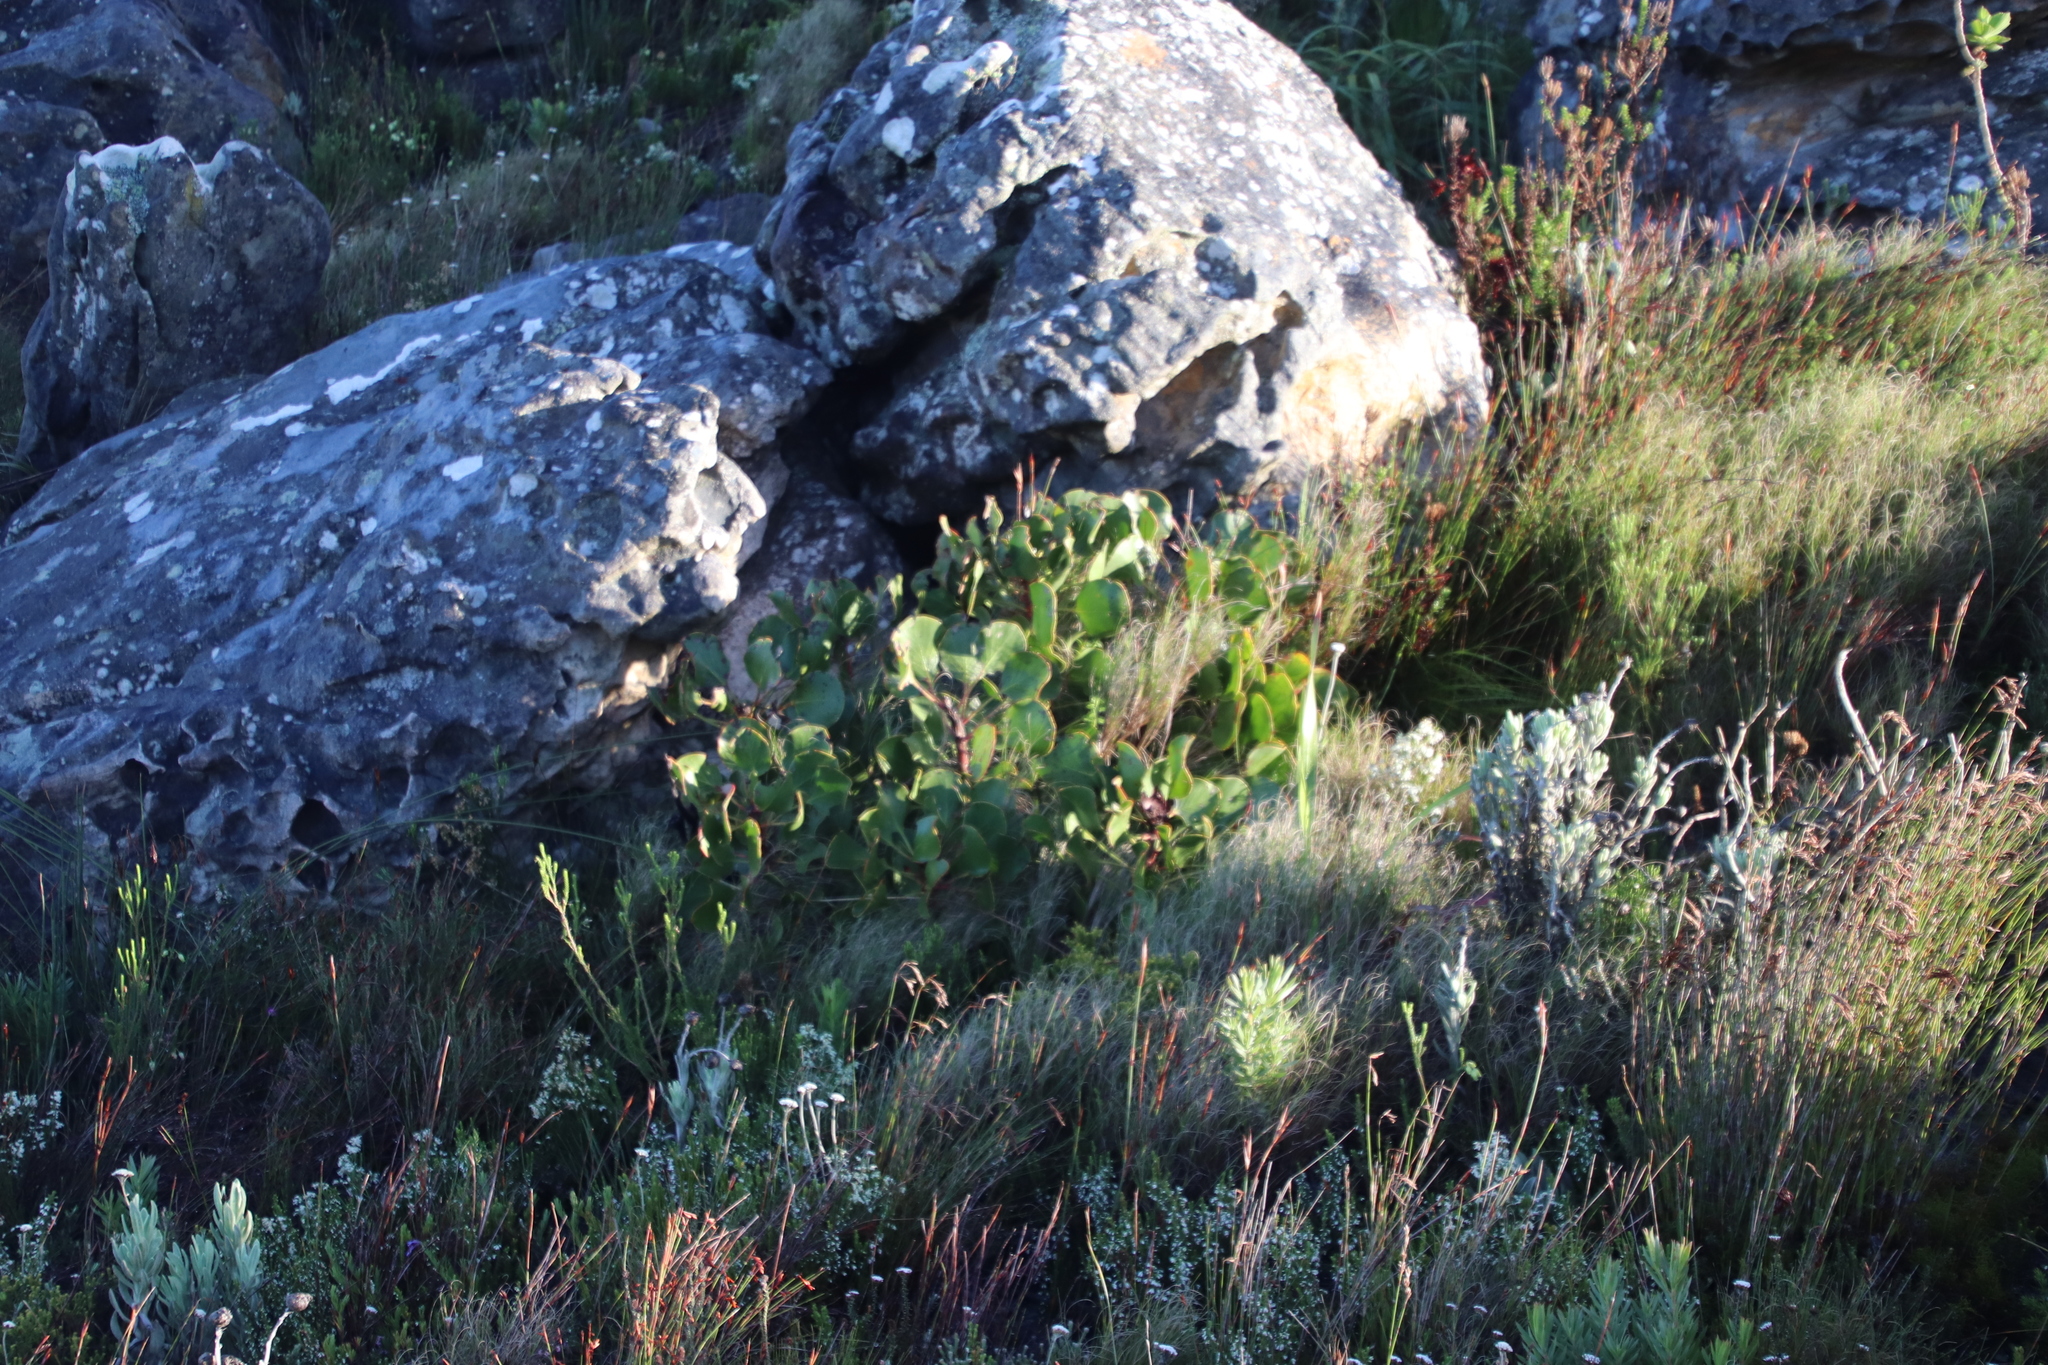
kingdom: Plantae
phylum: Tracheophyta
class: Magnoliopsida
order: Proteales
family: Proteaceae
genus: Protea
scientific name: Protea cynaroides
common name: King protea
